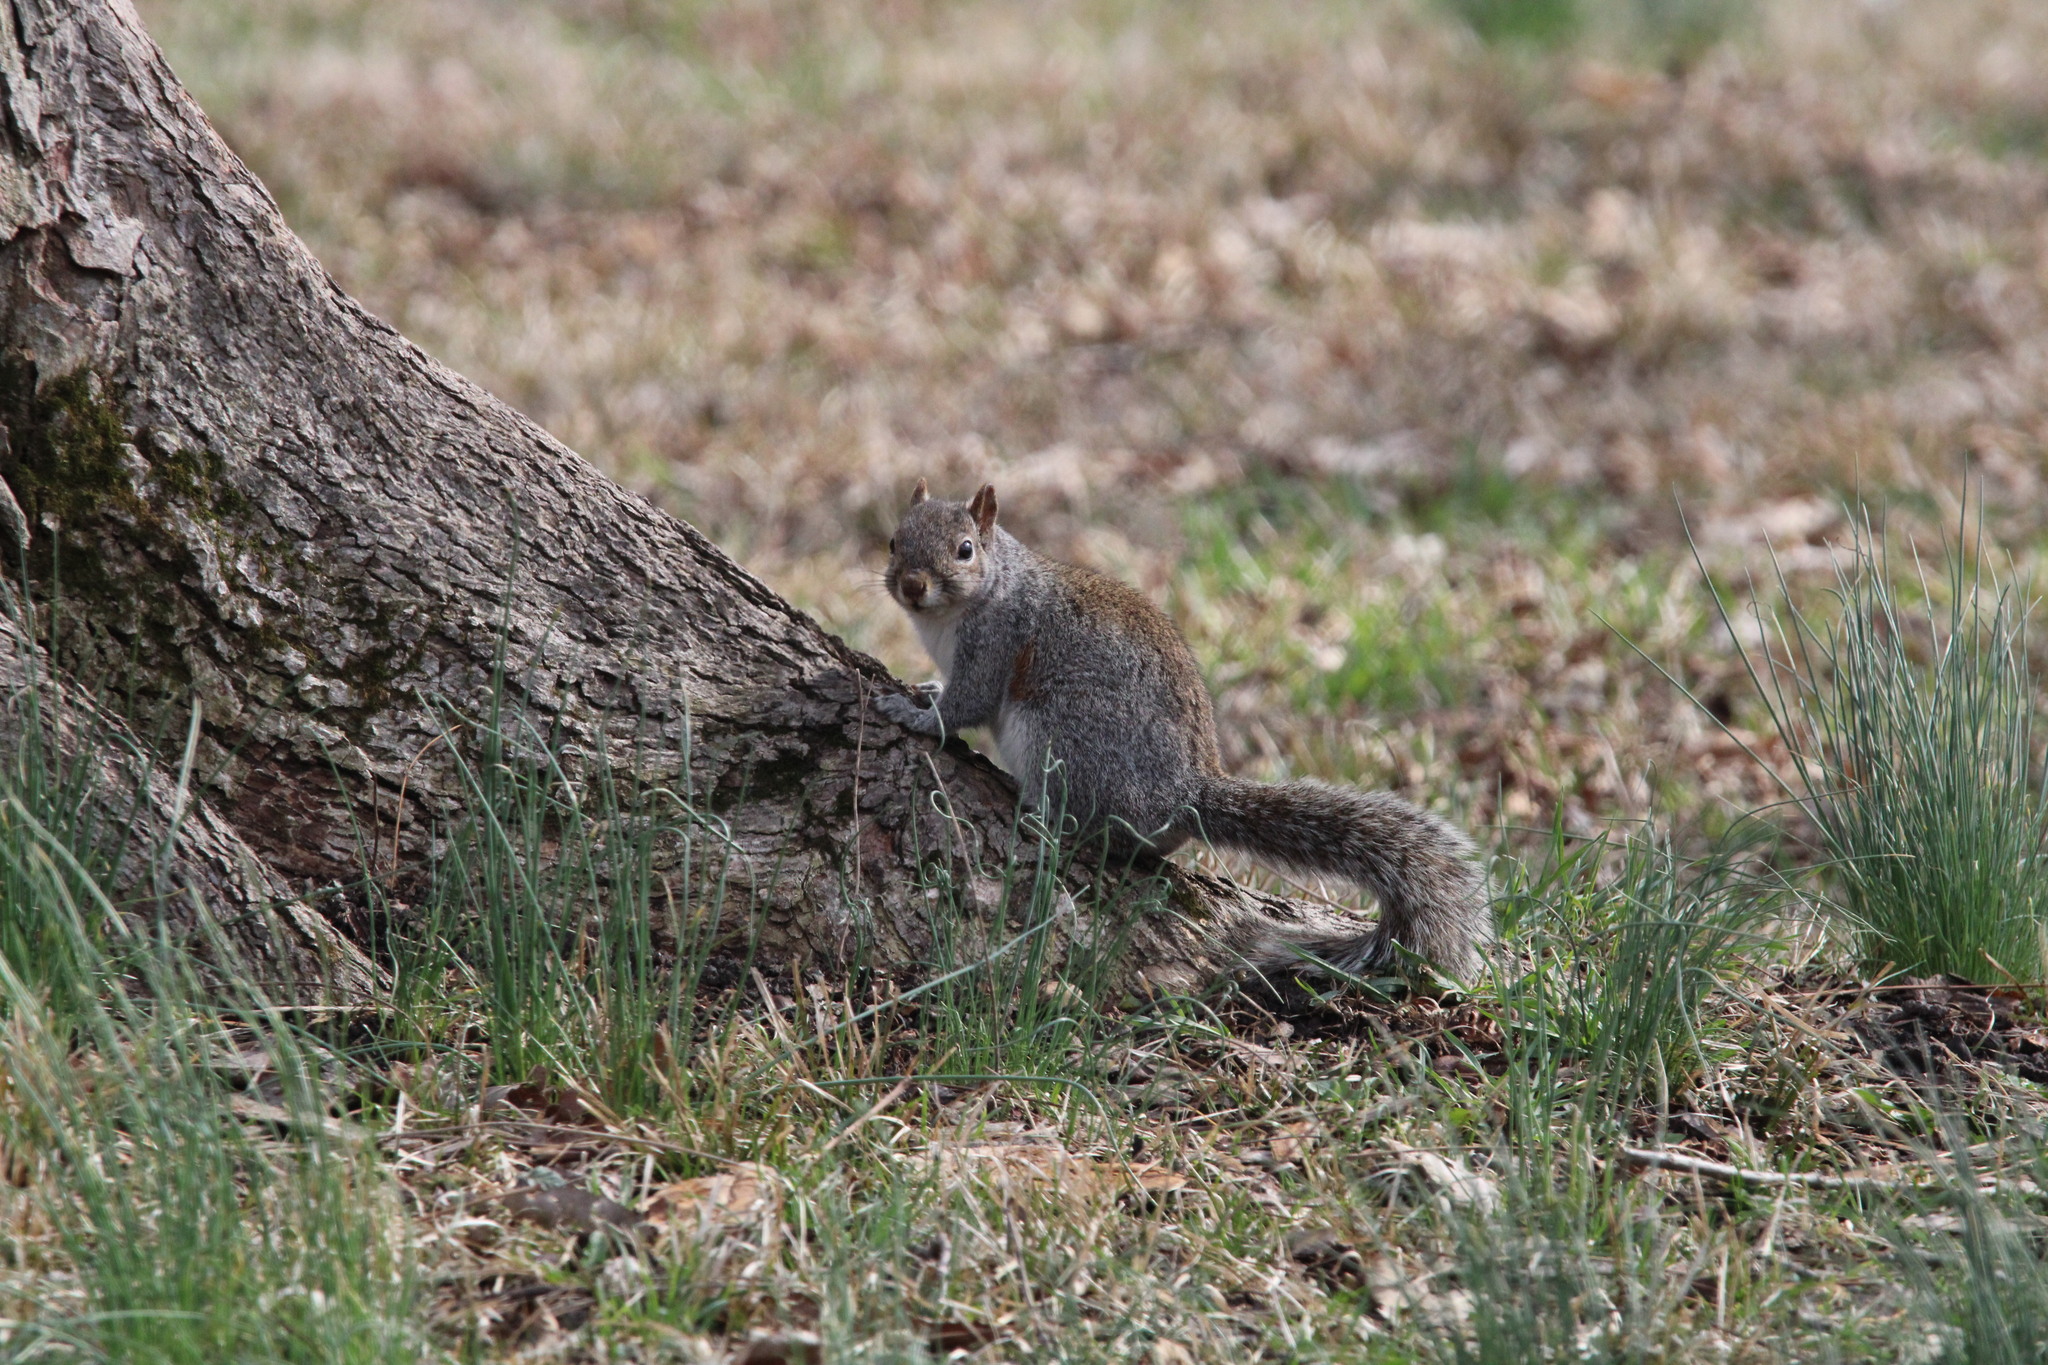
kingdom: Animalia
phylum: Chordata
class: Mammalia
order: Rodentia
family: Sciuridae
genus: Sciurus
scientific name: Sciurus carolinensis
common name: Eastern gray squirrel
